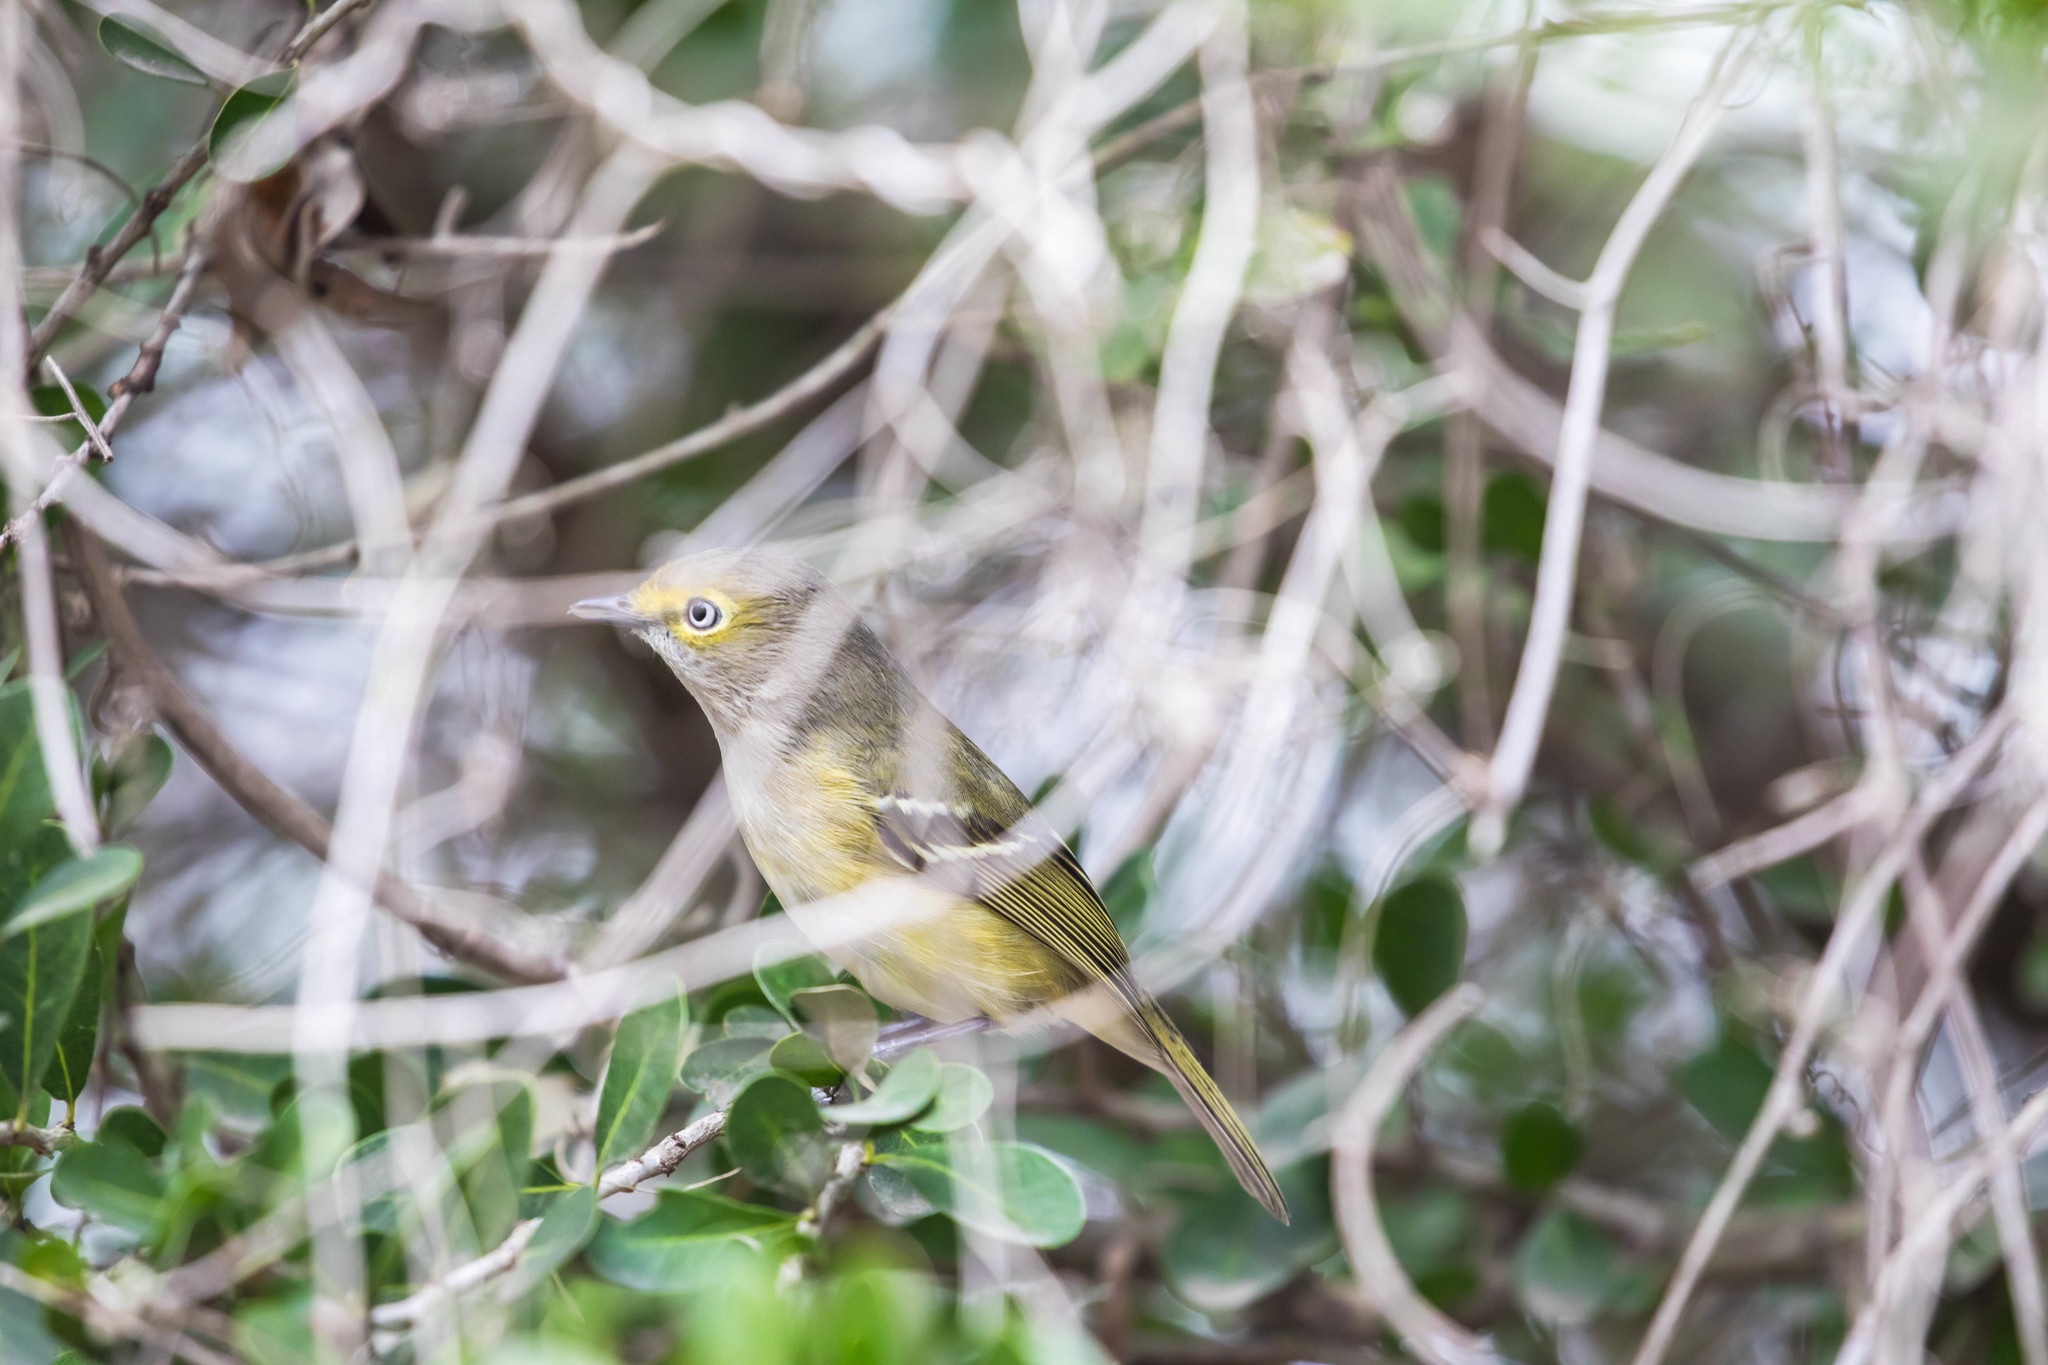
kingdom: Animalia
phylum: Chordata
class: Aves
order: Passeriformes
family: Vireonidae
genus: Vireo
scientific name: Vireo griseus
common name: White-eyed vireo
